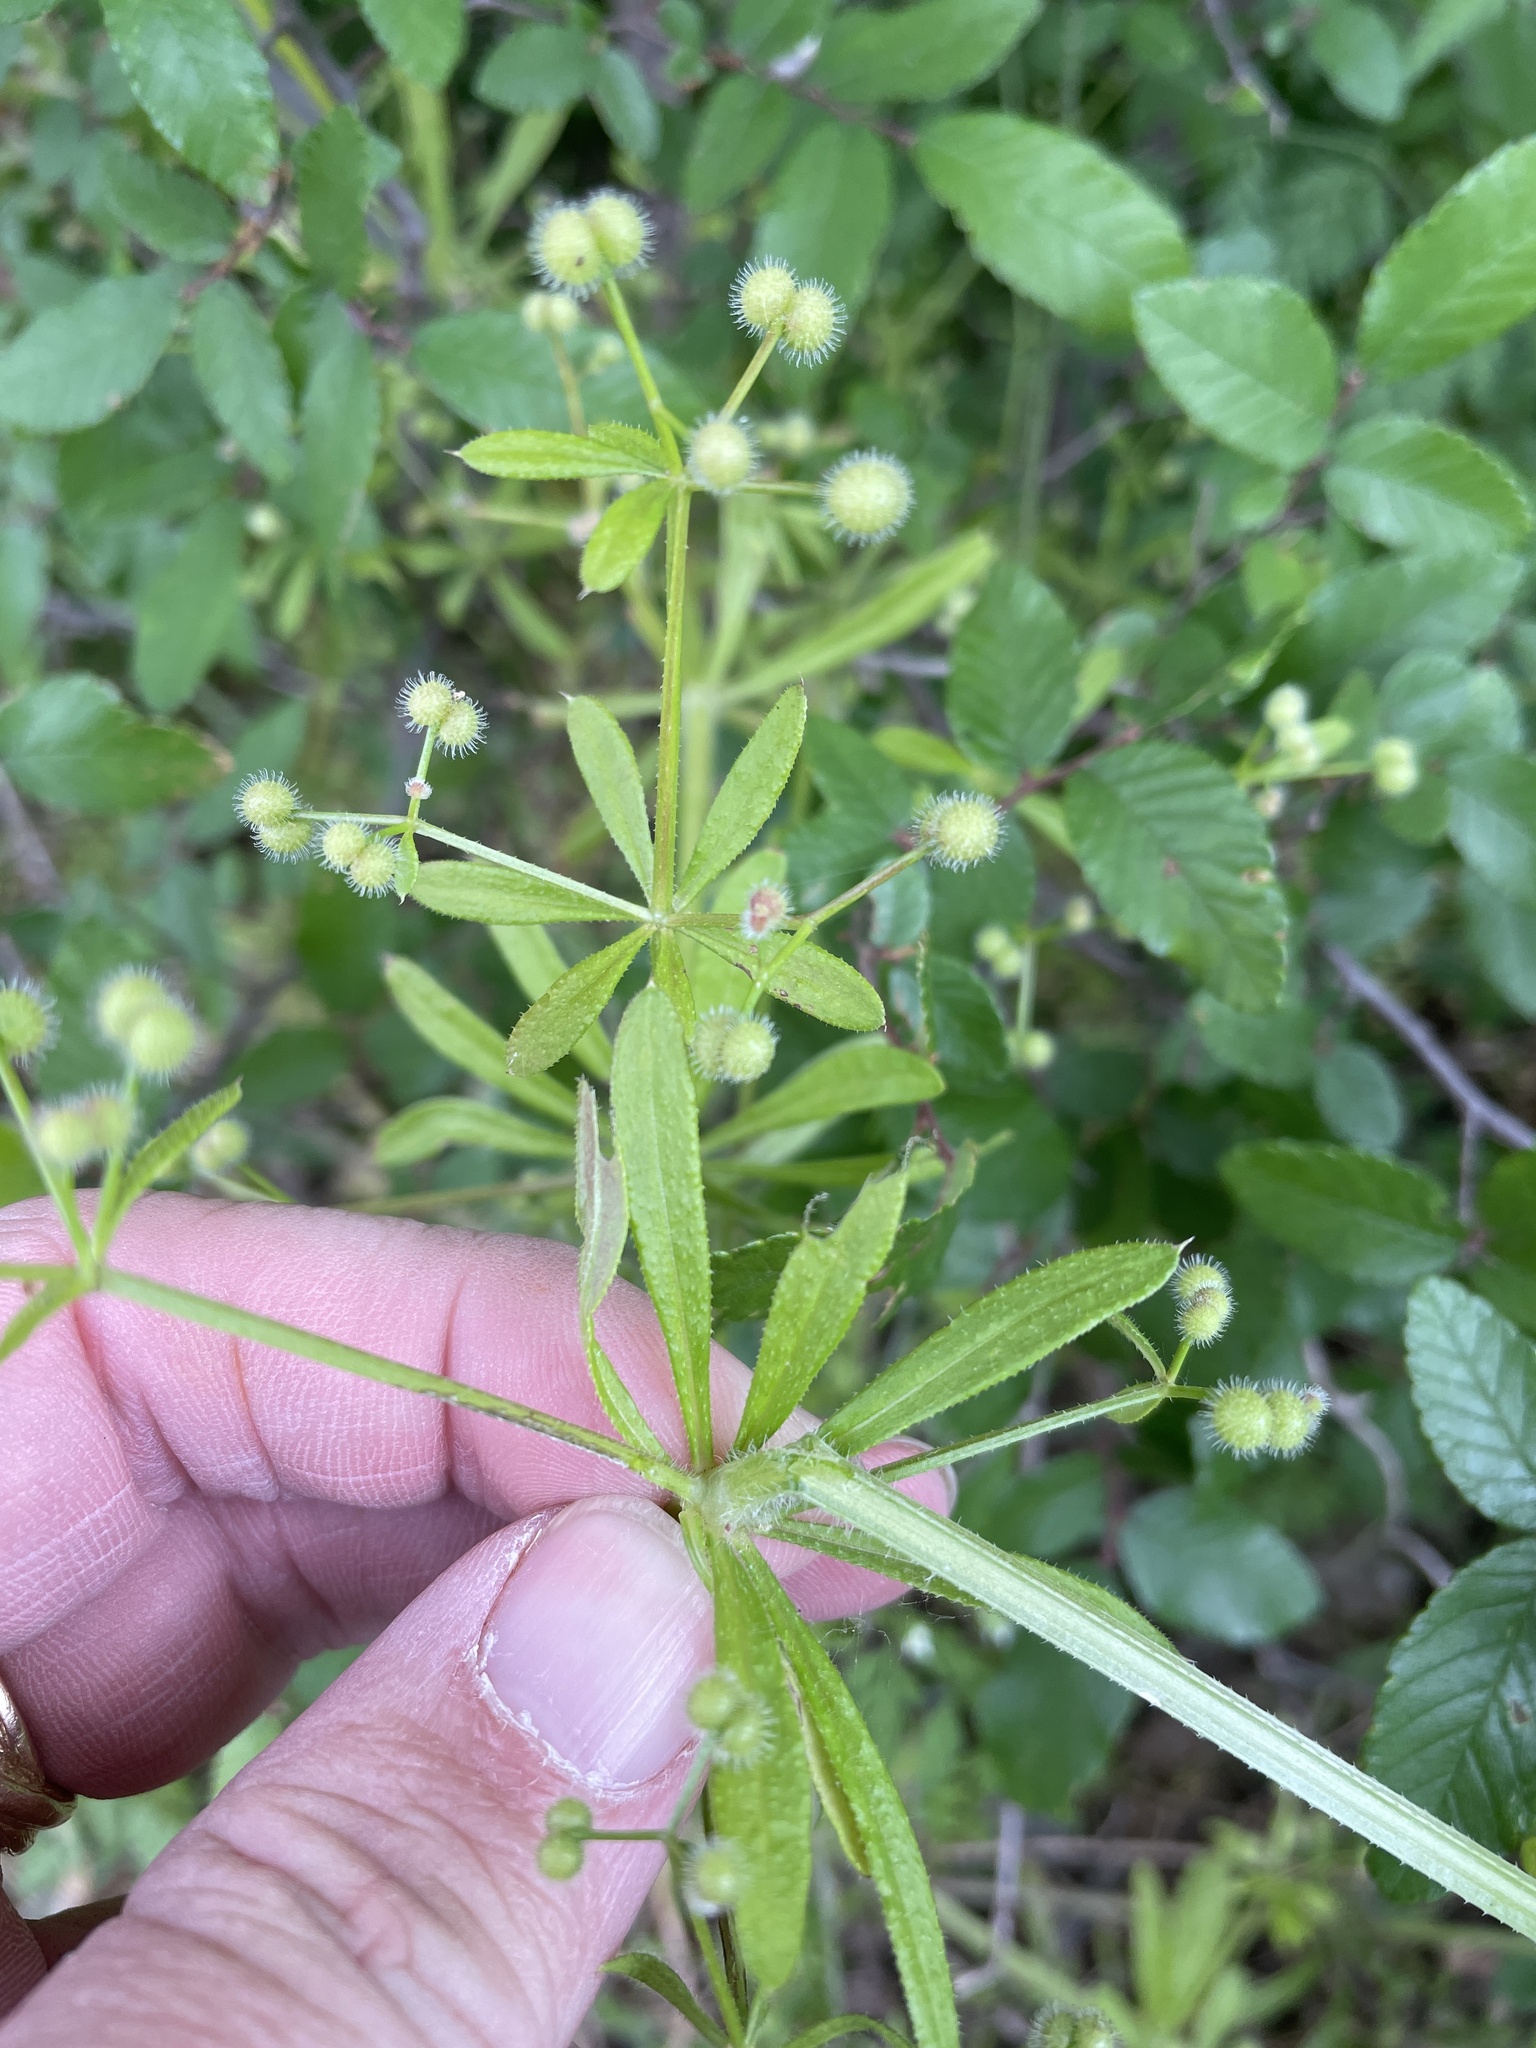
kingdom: Plantae
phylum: Tracheophyta
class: Magnoliopsida
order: Gentianales
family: Rubiaceae
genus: Galium
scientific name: Galium aparine
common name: Cleavers
